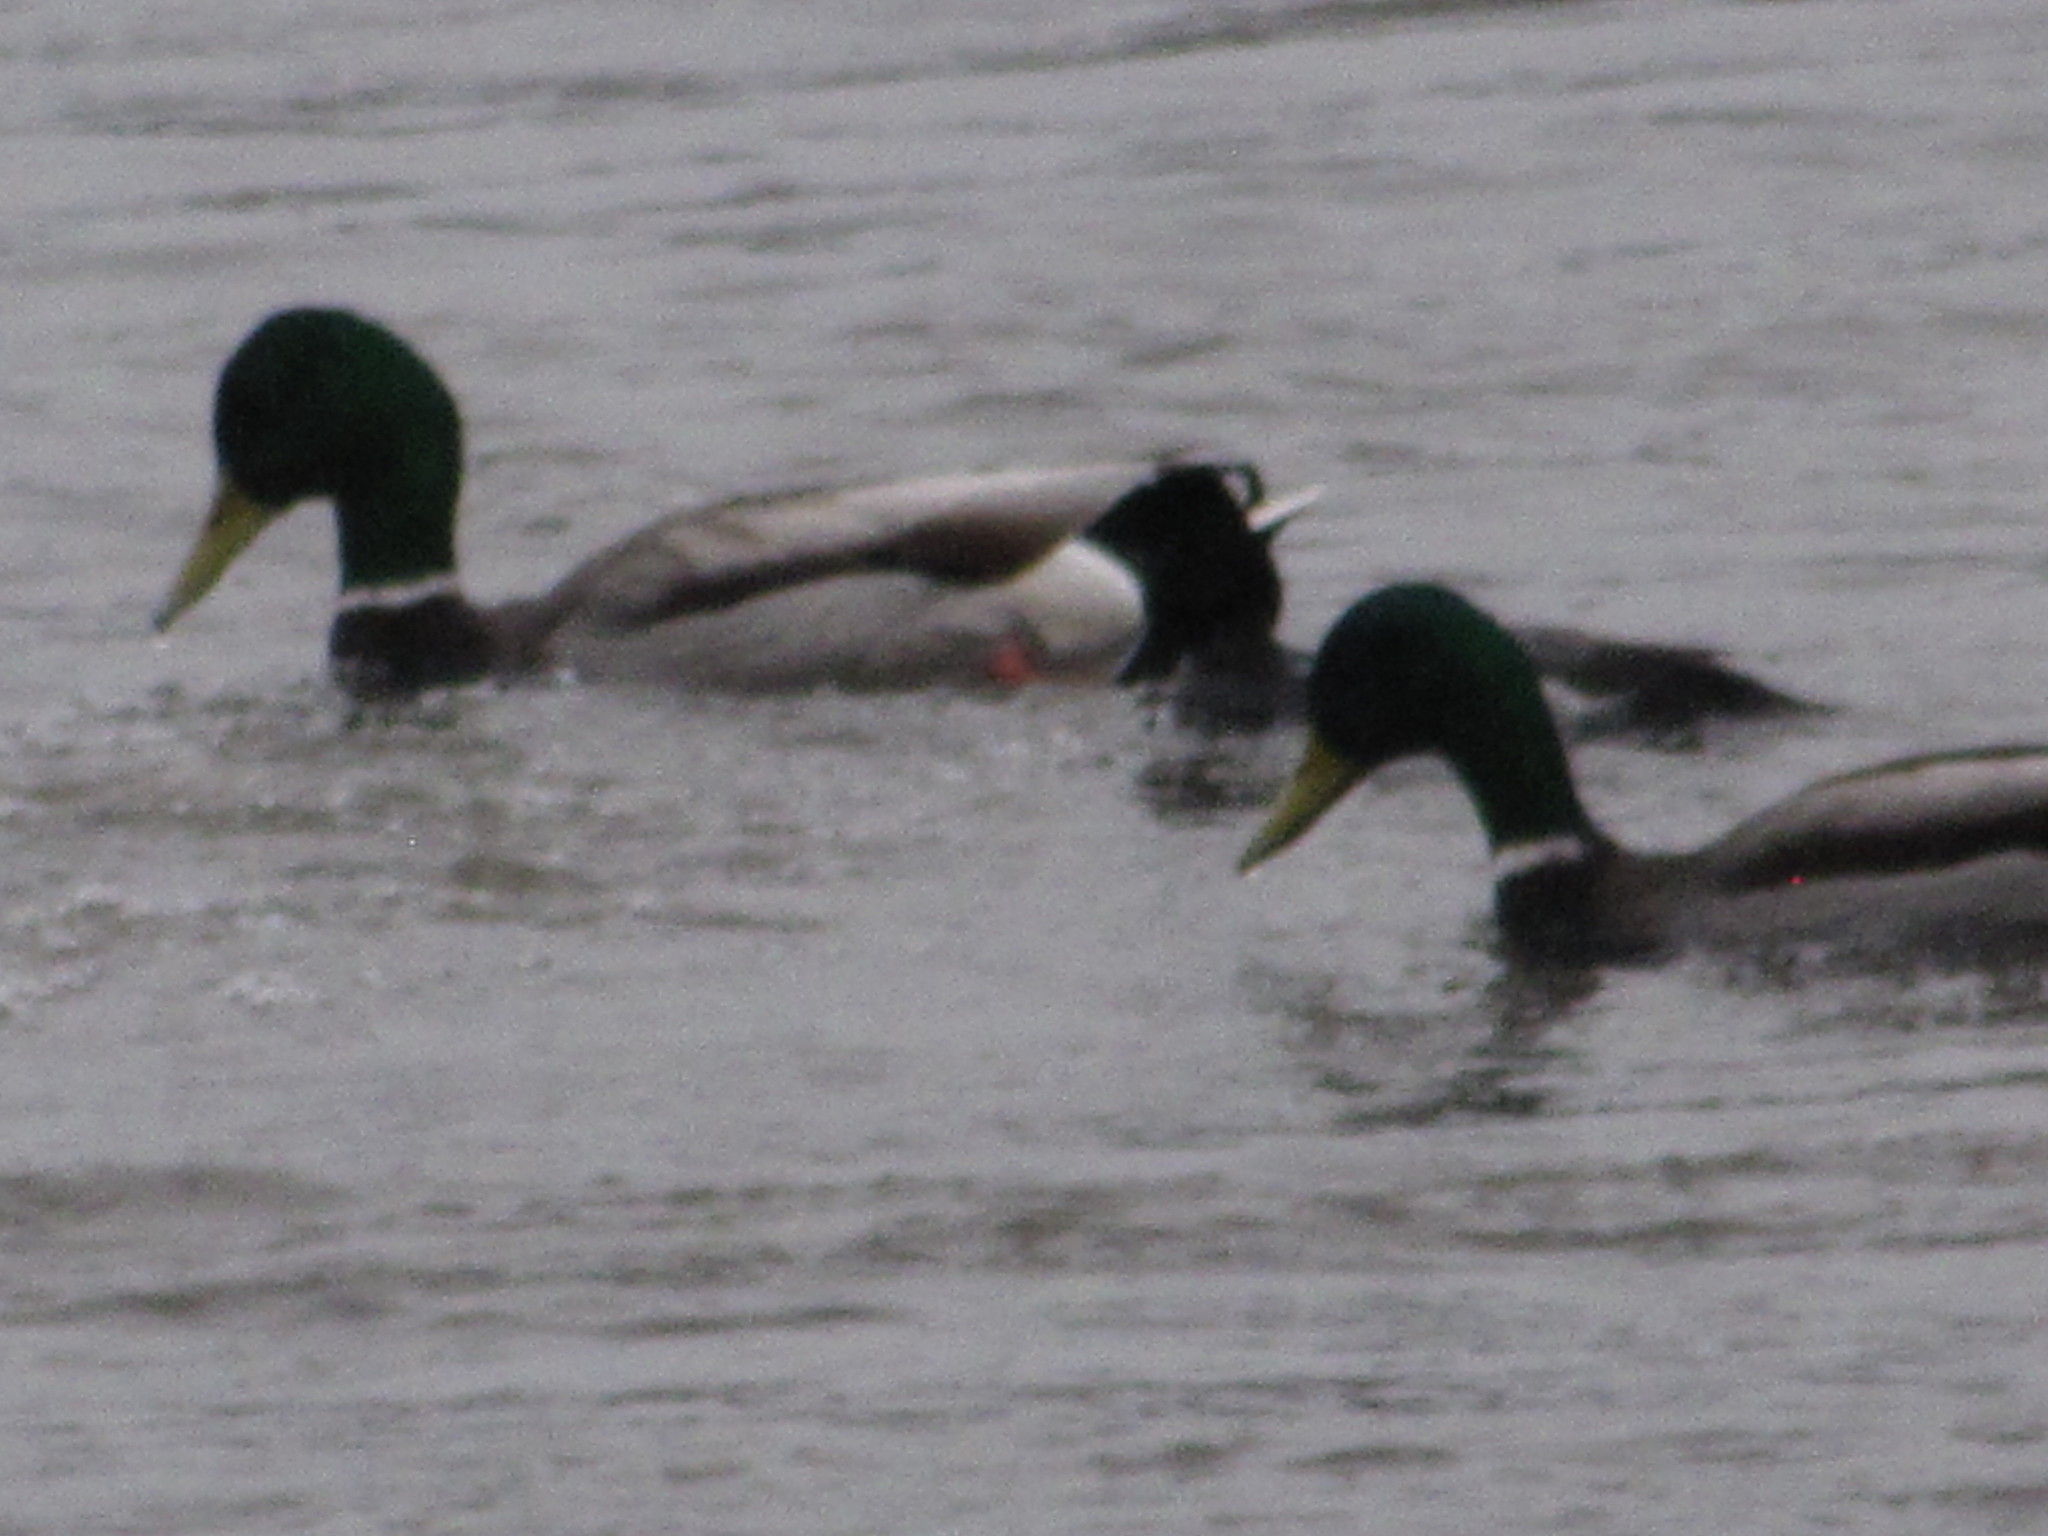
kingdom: Animalia
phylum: Chordata
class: Aves
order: Anseriformes
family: Anatidae
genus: Anas
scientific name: Anas platyrhynchos
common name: Mallard
